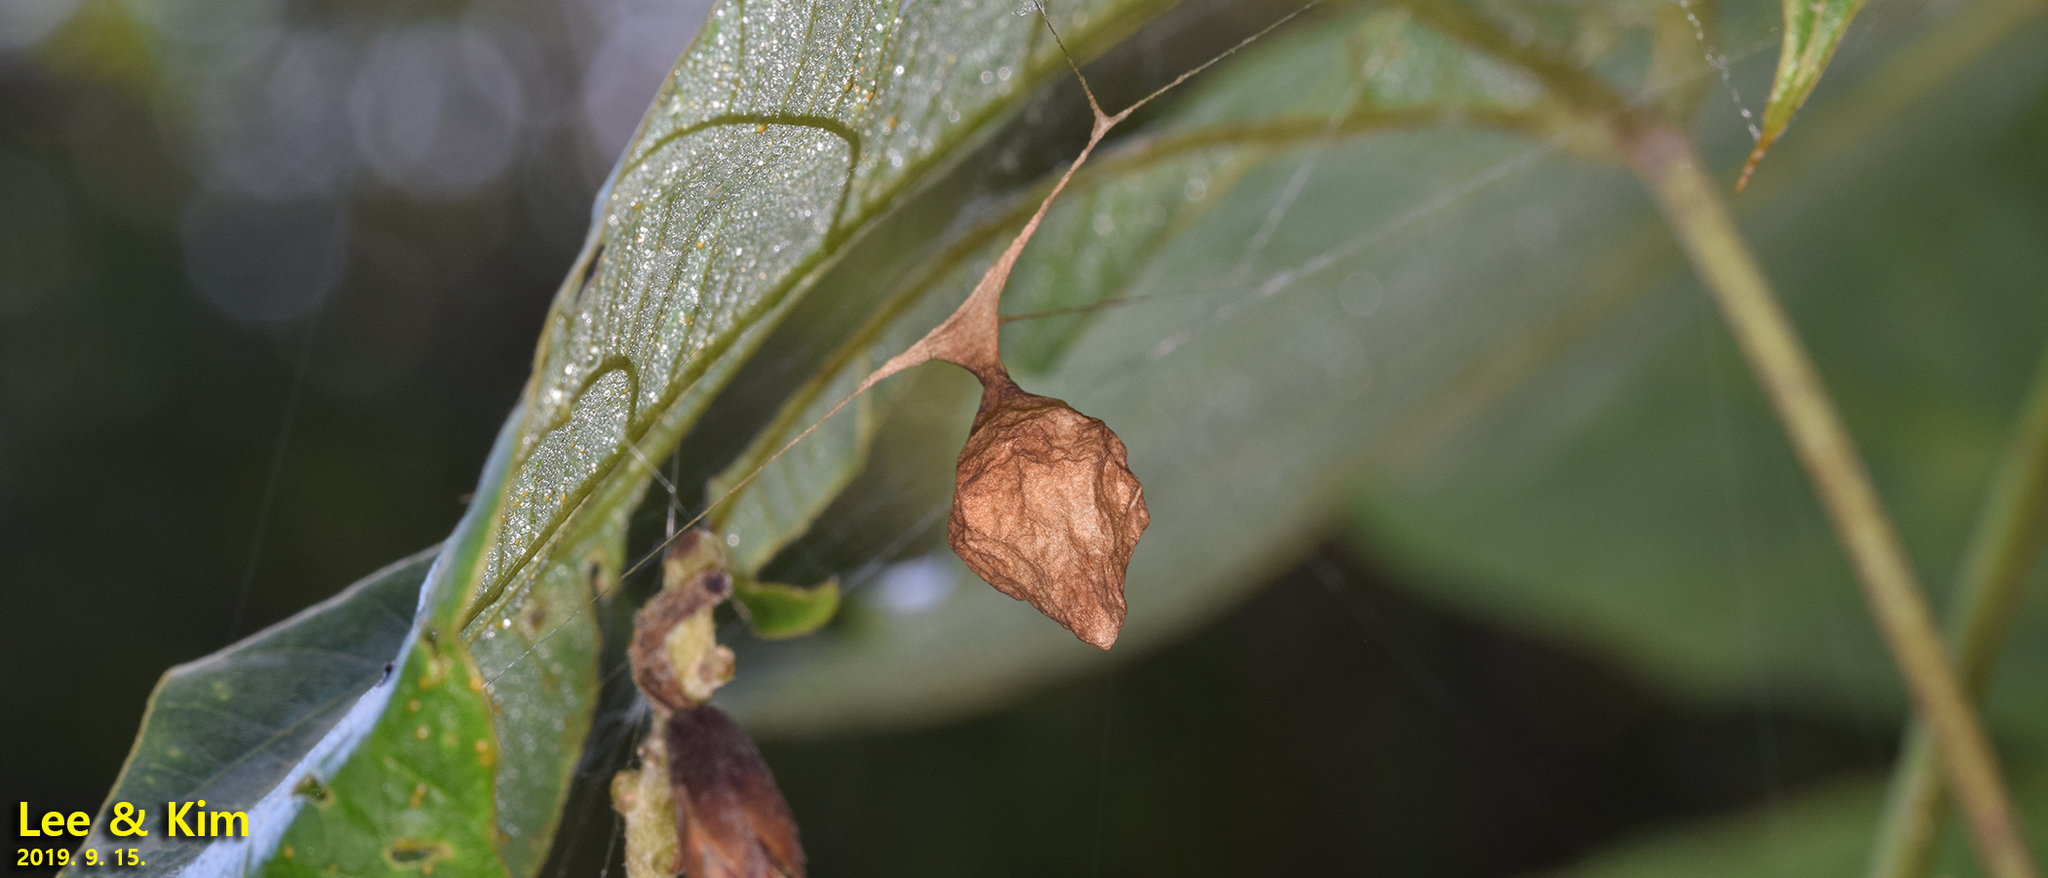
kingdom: Animalia
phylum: Arthropoda
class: Arachnida
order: Araneae
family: Araneidae
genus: Cyrtarachne
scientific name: Cyrtarachne inaequalis
